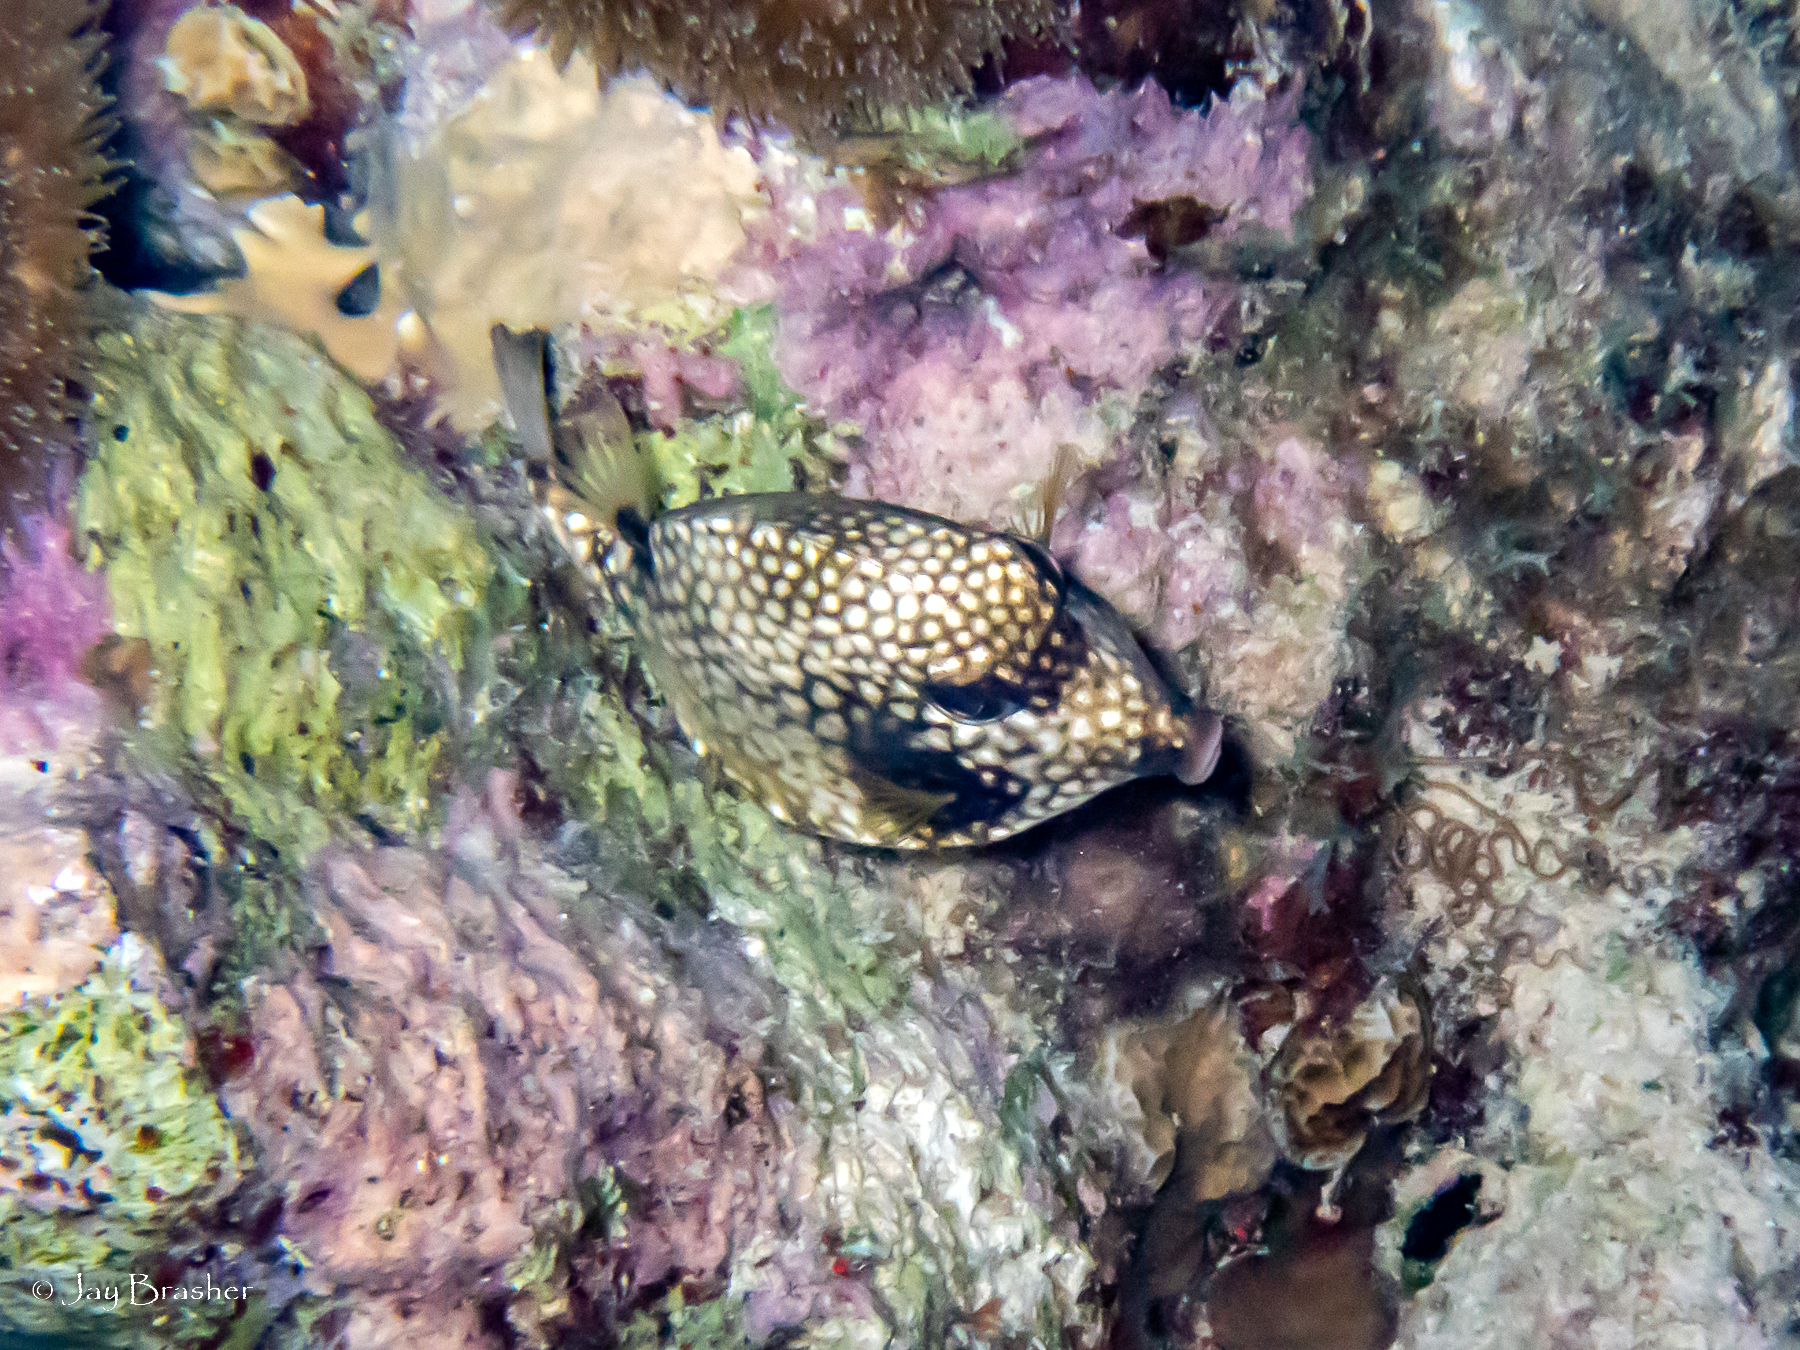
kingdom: Animalia
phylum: Chordata
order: Tetraodontiformes
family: Ostraciidae
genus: Lactophrys
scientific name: Lactophrys triqueter
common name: Smooth trunkfish
